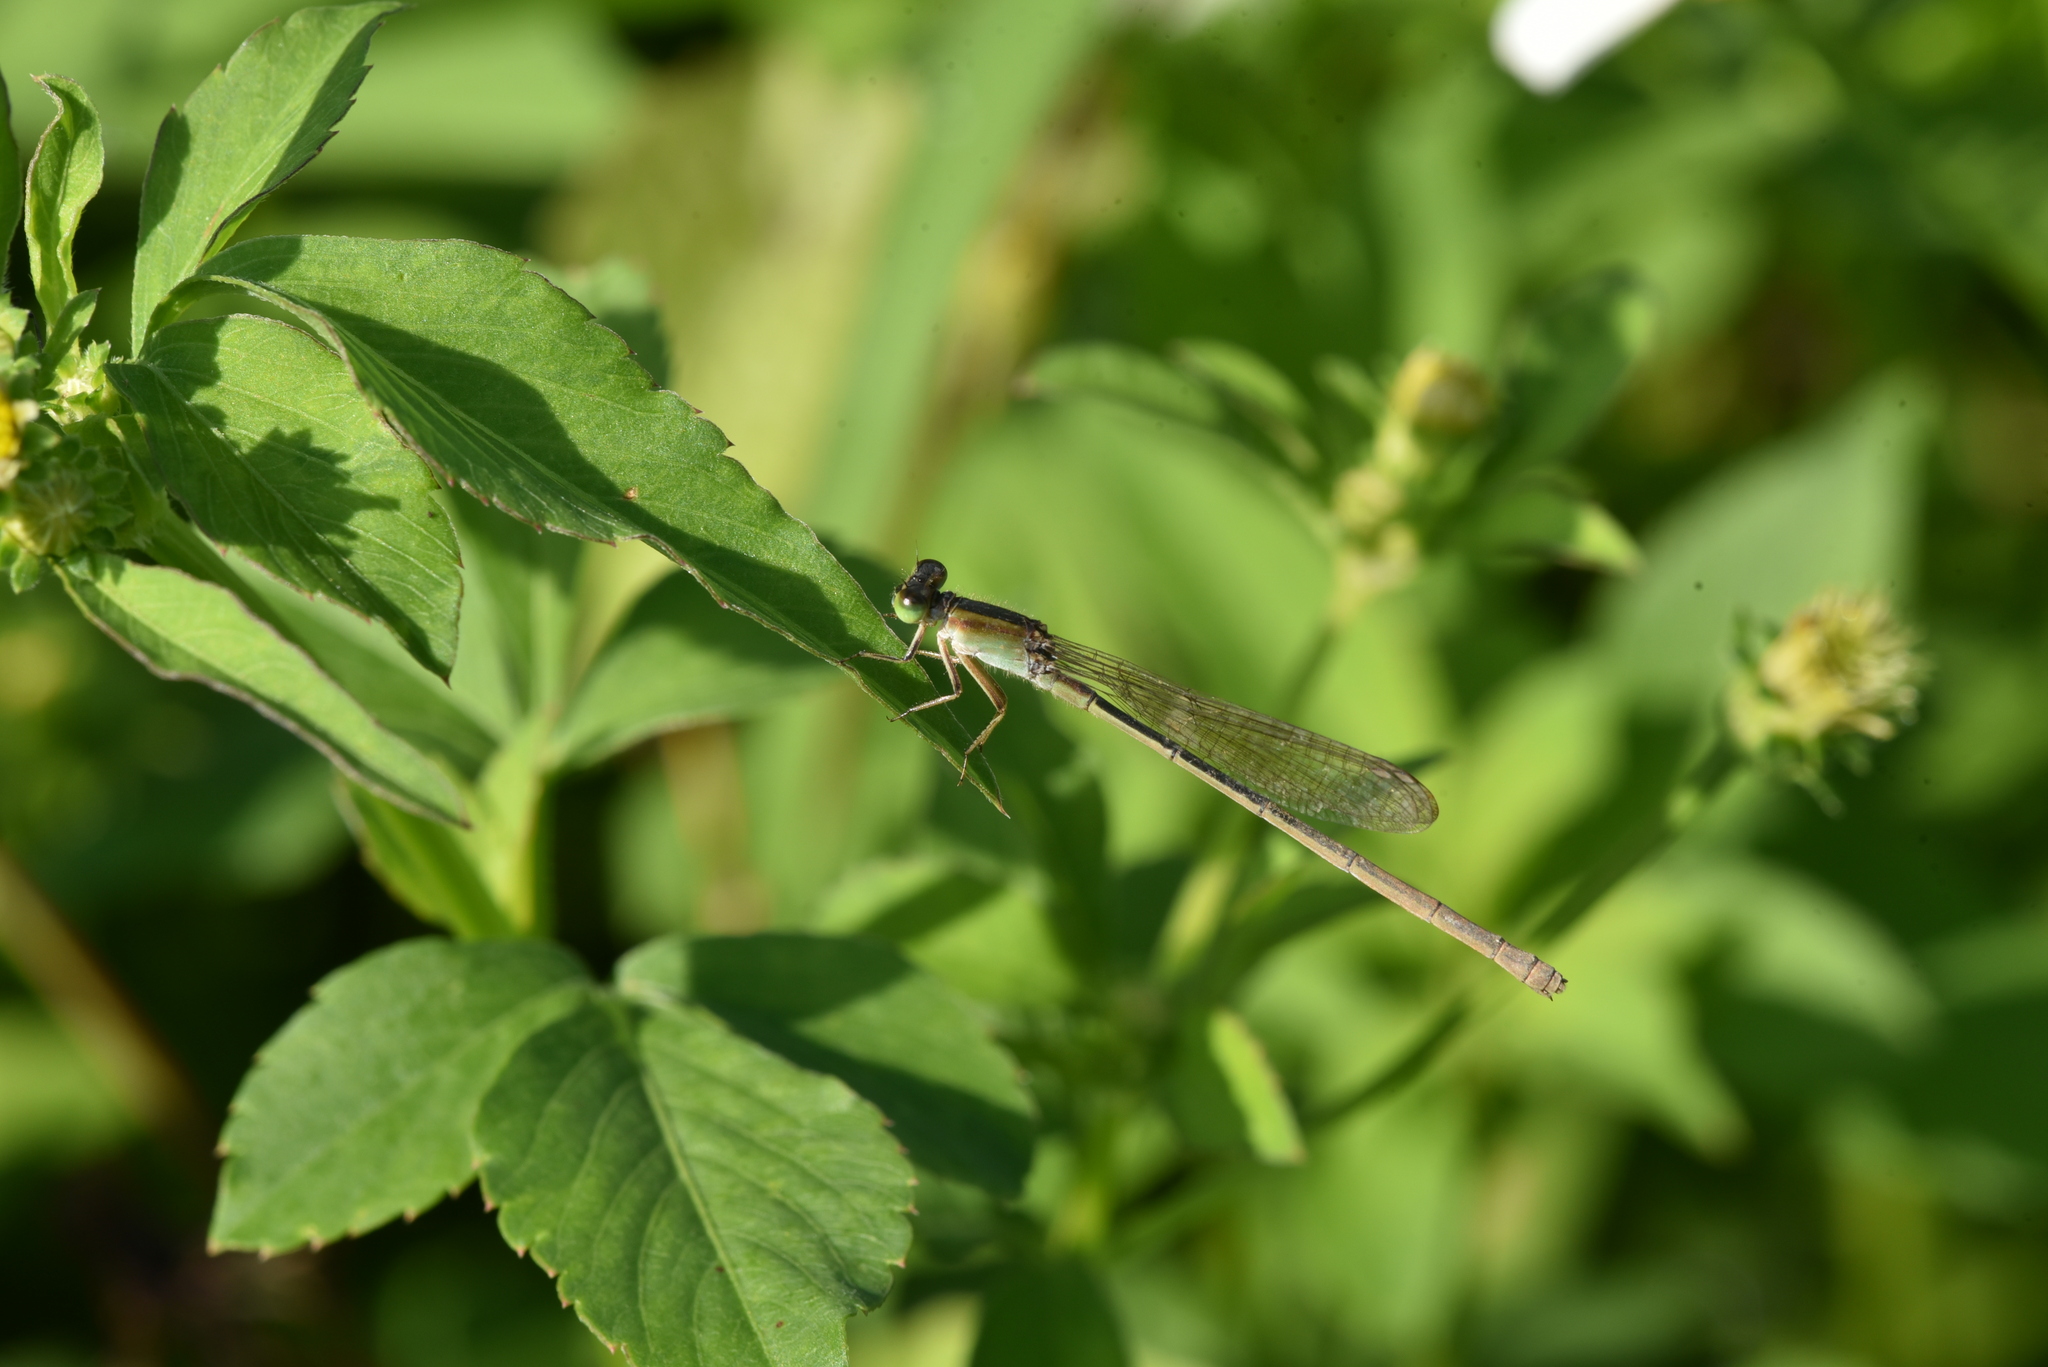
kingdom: Animalia
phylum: Arthropoda
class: Insecta
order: Odonata
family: Coenagrionidae
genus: Ischnura
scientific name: Ischnura senegalensis
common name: Tropical bluetail
